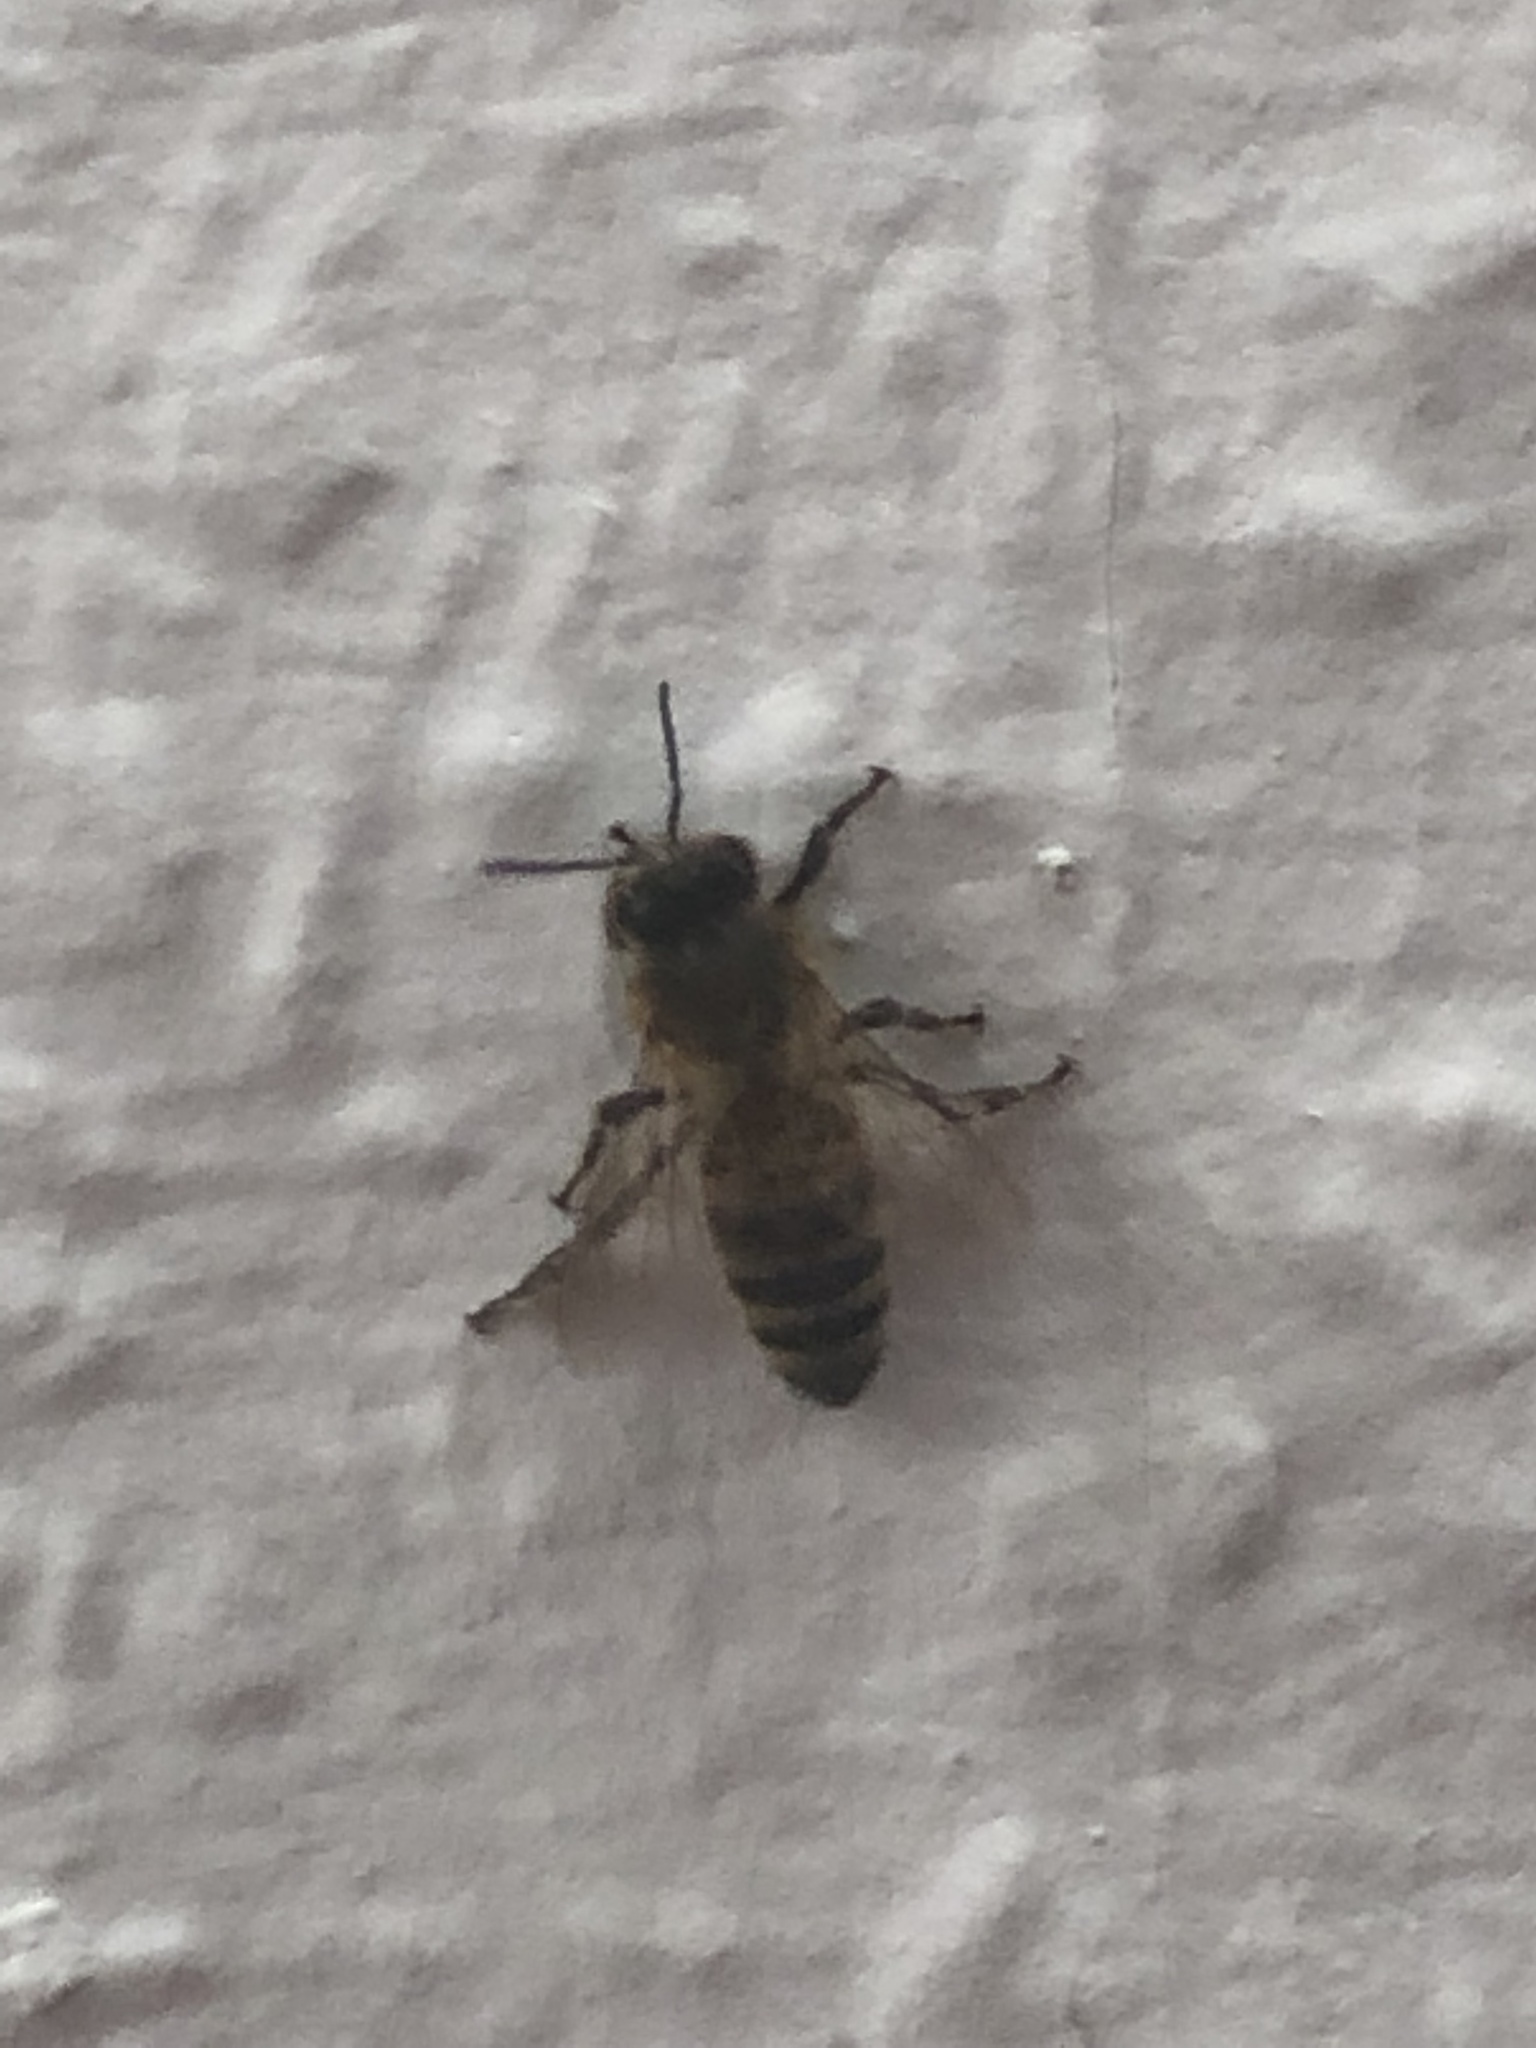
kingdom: Animalia
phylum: Arthropoda
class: Insecta
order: Hymenoptera
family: Apidae
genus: Apis
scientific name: Apis mellifera
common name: Honey bee
